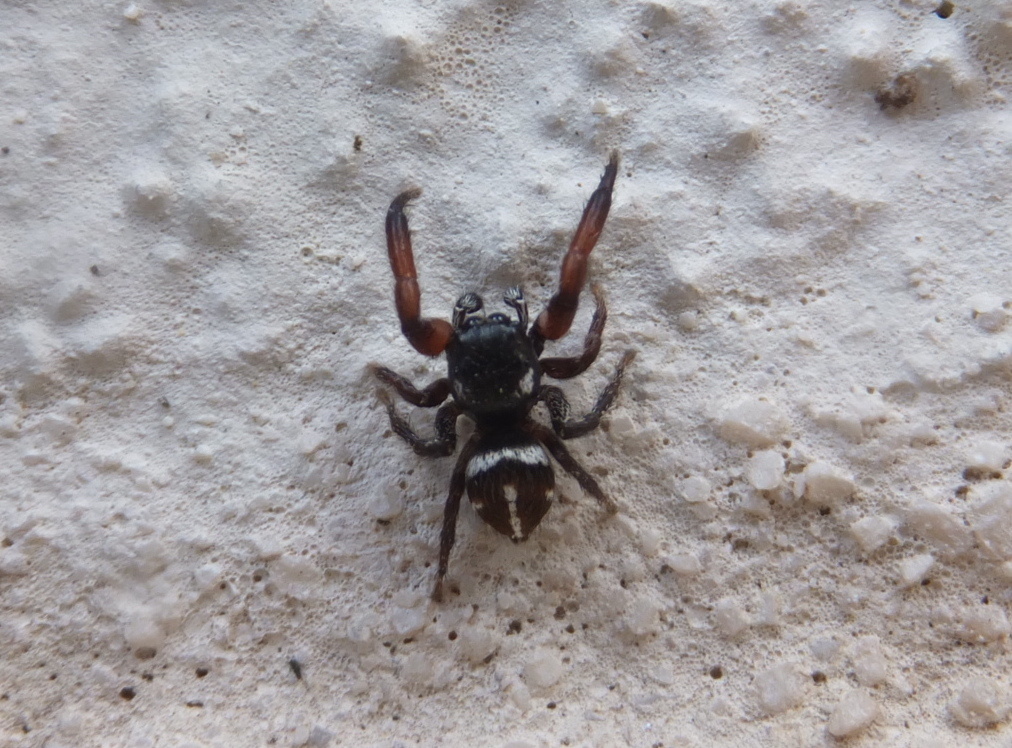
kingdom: Animalia
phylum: Arthropoda
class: Arachnida
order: Araneae
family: Salticidae
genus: Pellenes
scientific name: Pellenes nigrociliatus
